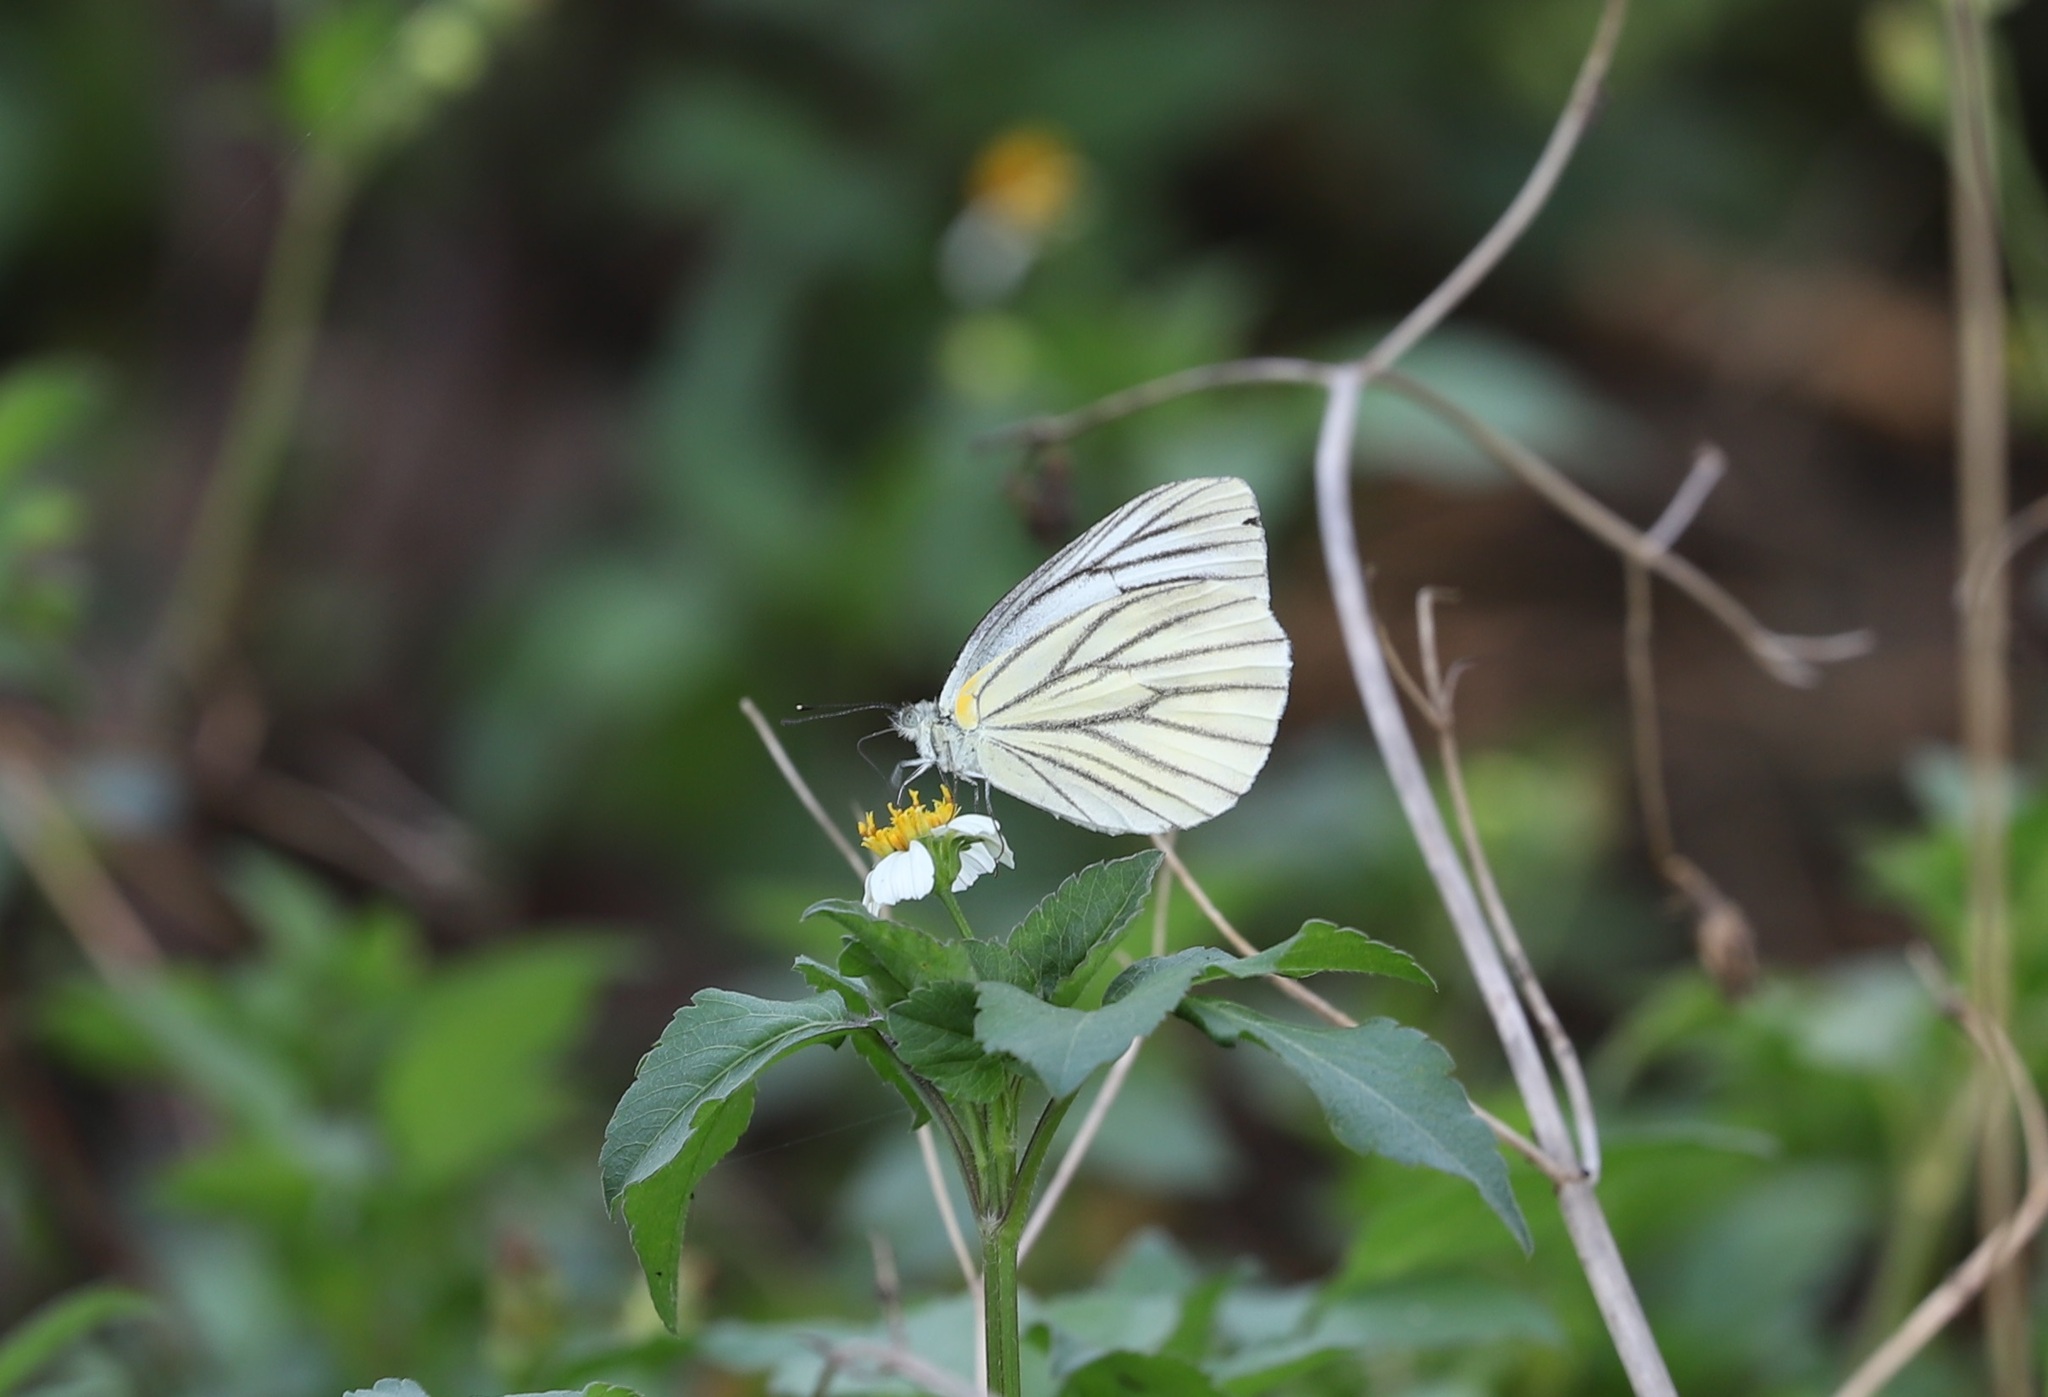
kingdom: Animalia
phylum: Arthropoda
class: Insecta
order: Lepidoptera
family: Pieridae
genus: Pieris
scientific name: Pieris erutae
